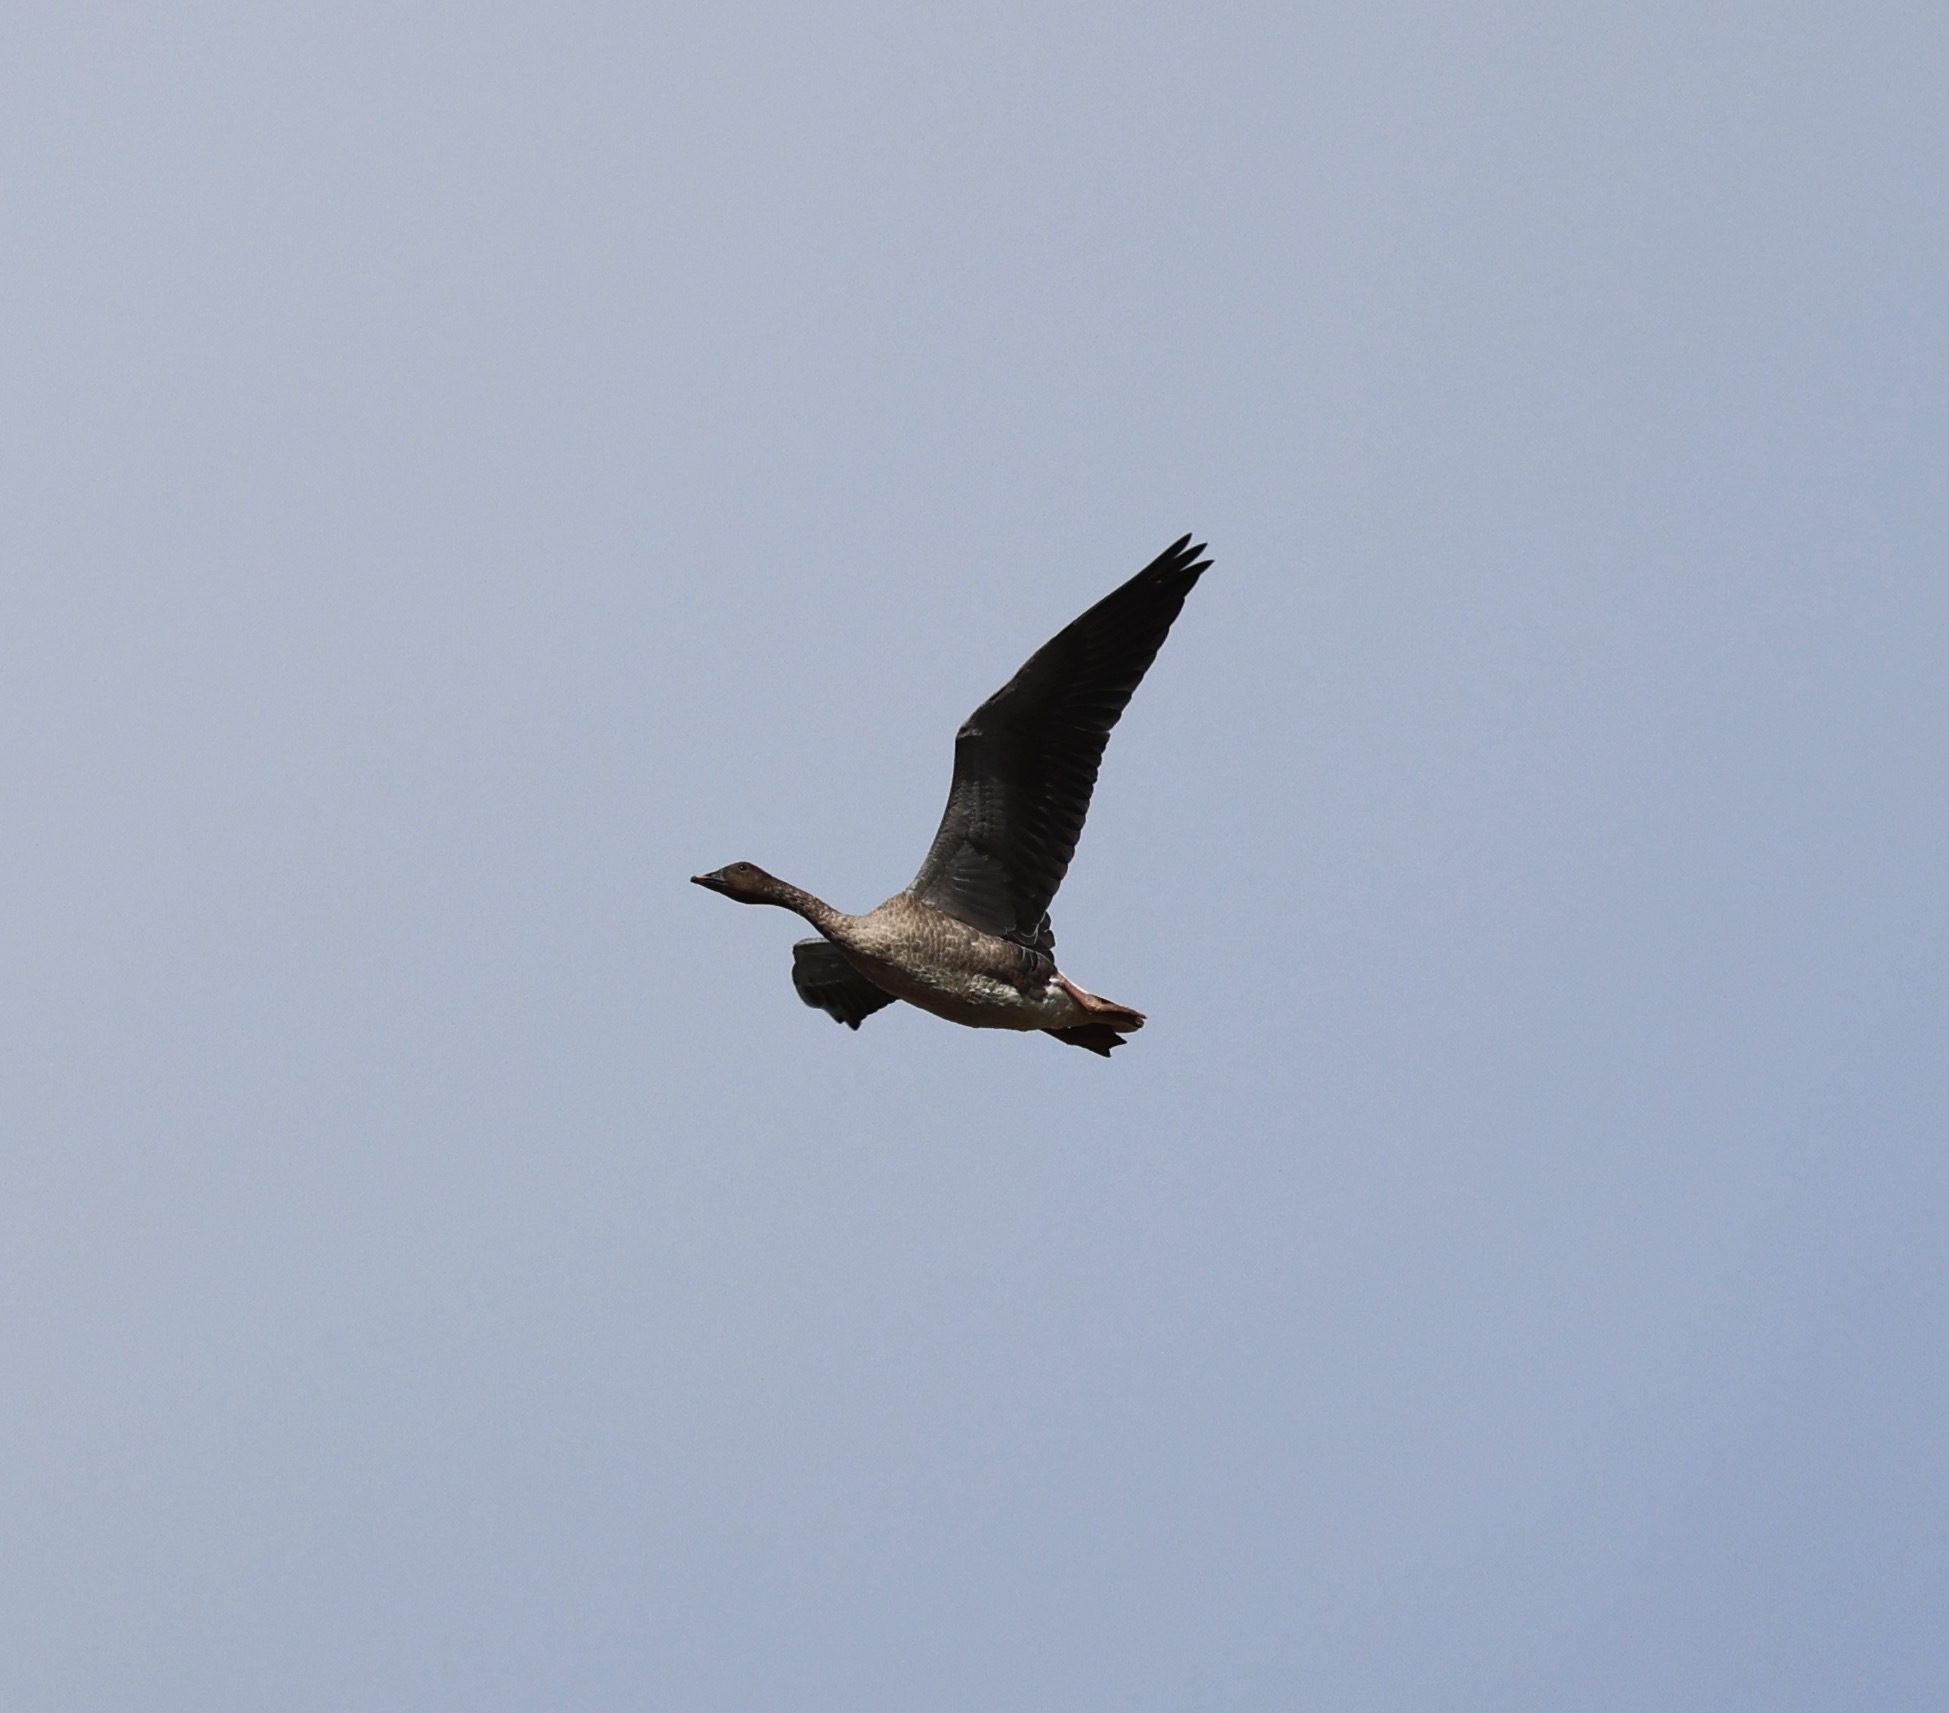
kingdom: Animalia
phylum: Chordata
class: Aves
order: Anseriformes
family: Anatidae
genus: Anser
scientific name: Anser brachyrhynchus
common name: Pink-footed goose
